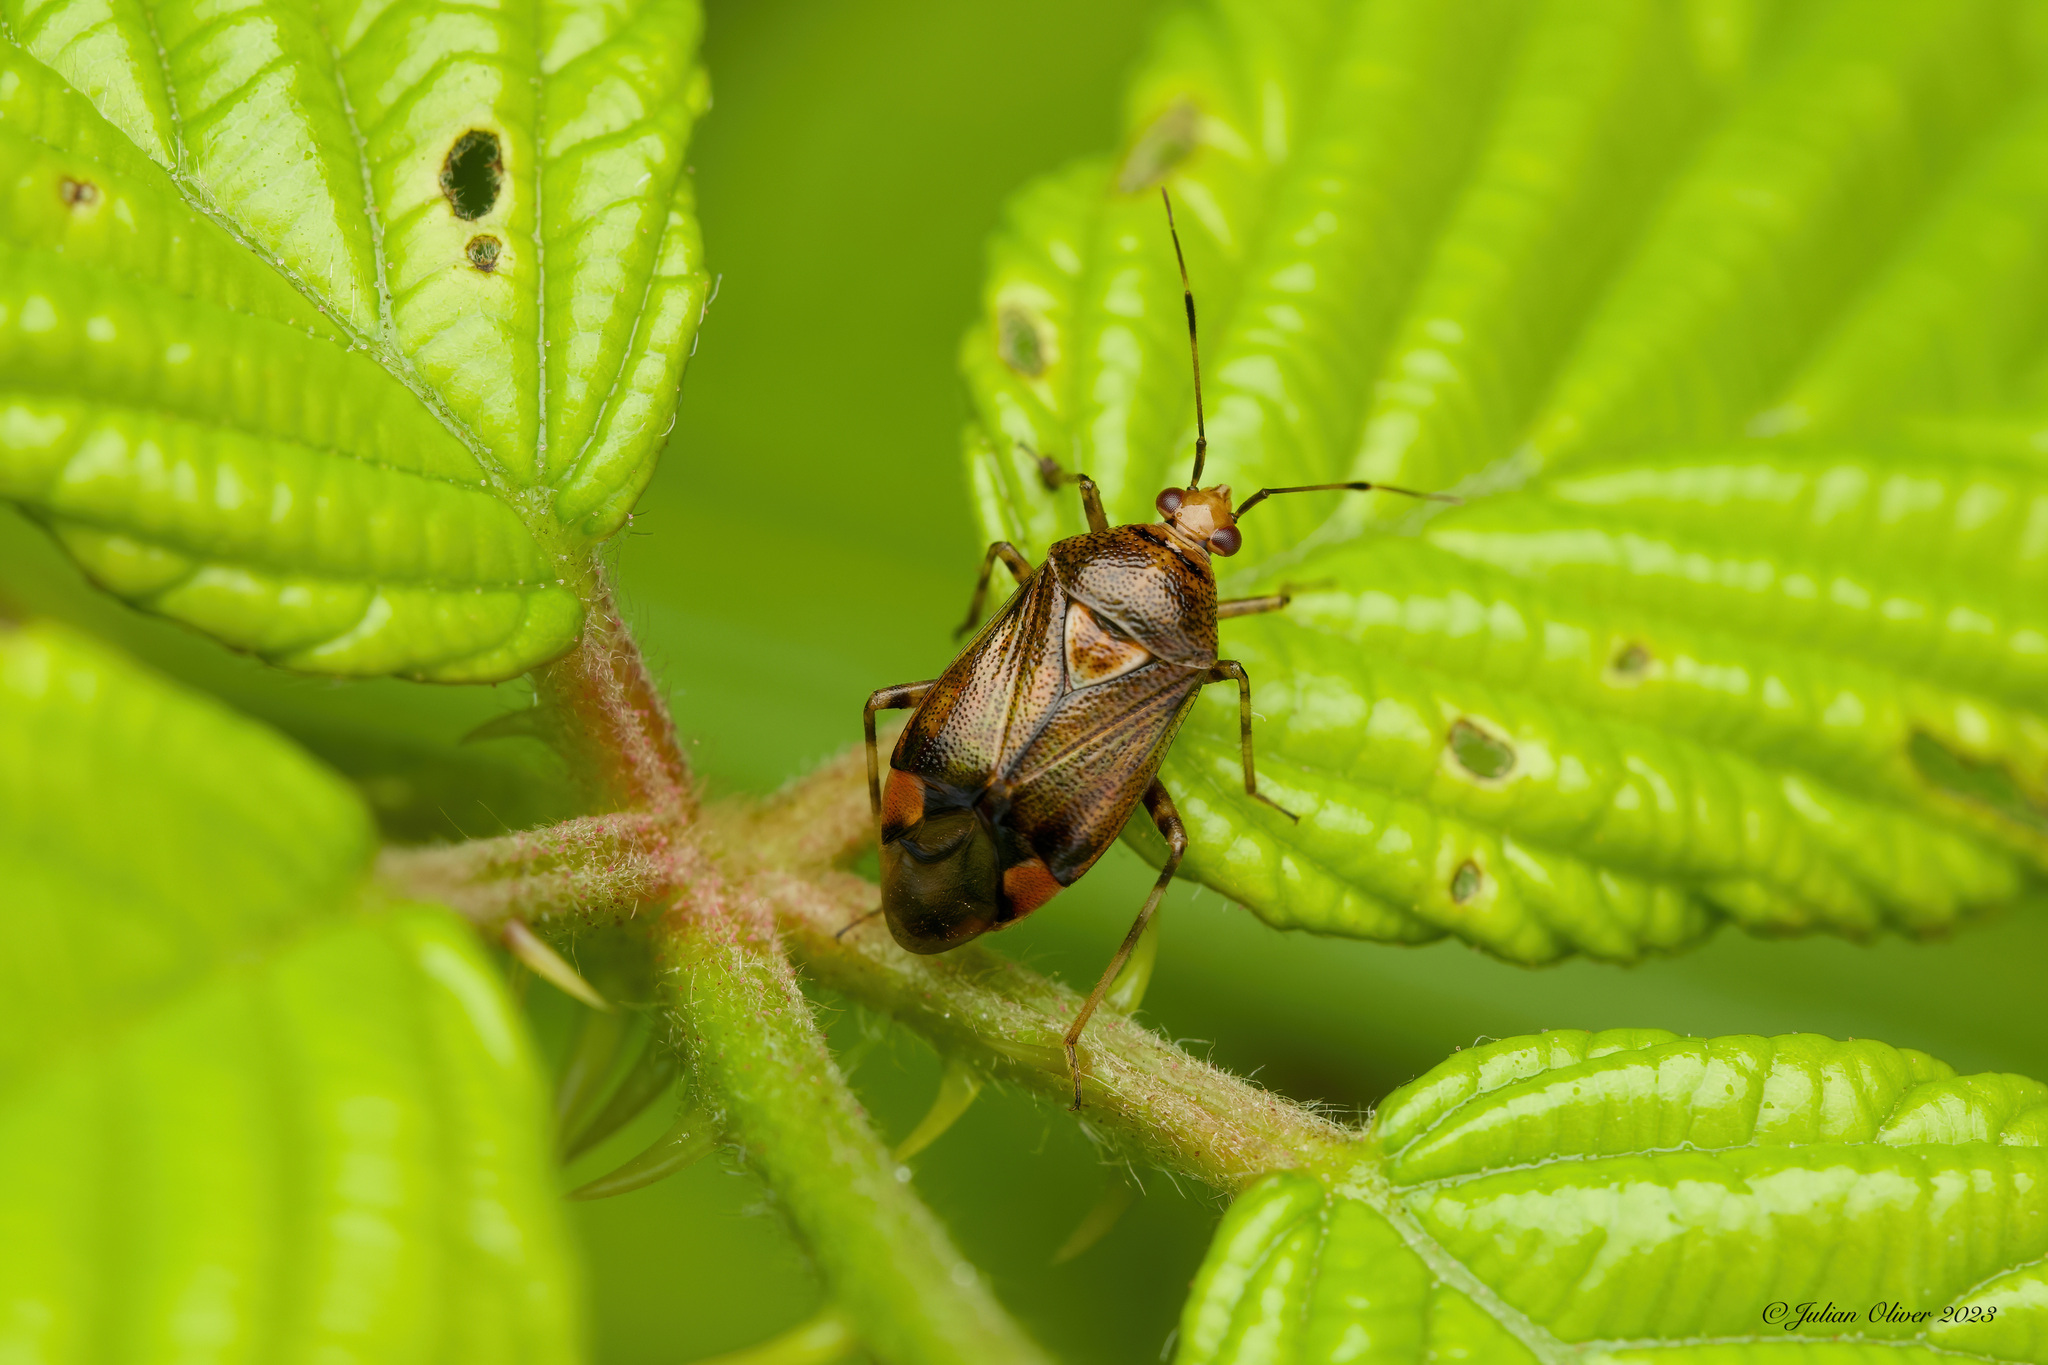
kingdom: Animalia
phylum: Arthropoda
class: Insecta
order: Hemiptera
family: Miridae
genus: Deraeocoris
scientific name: Deraeocoris flavilinea
